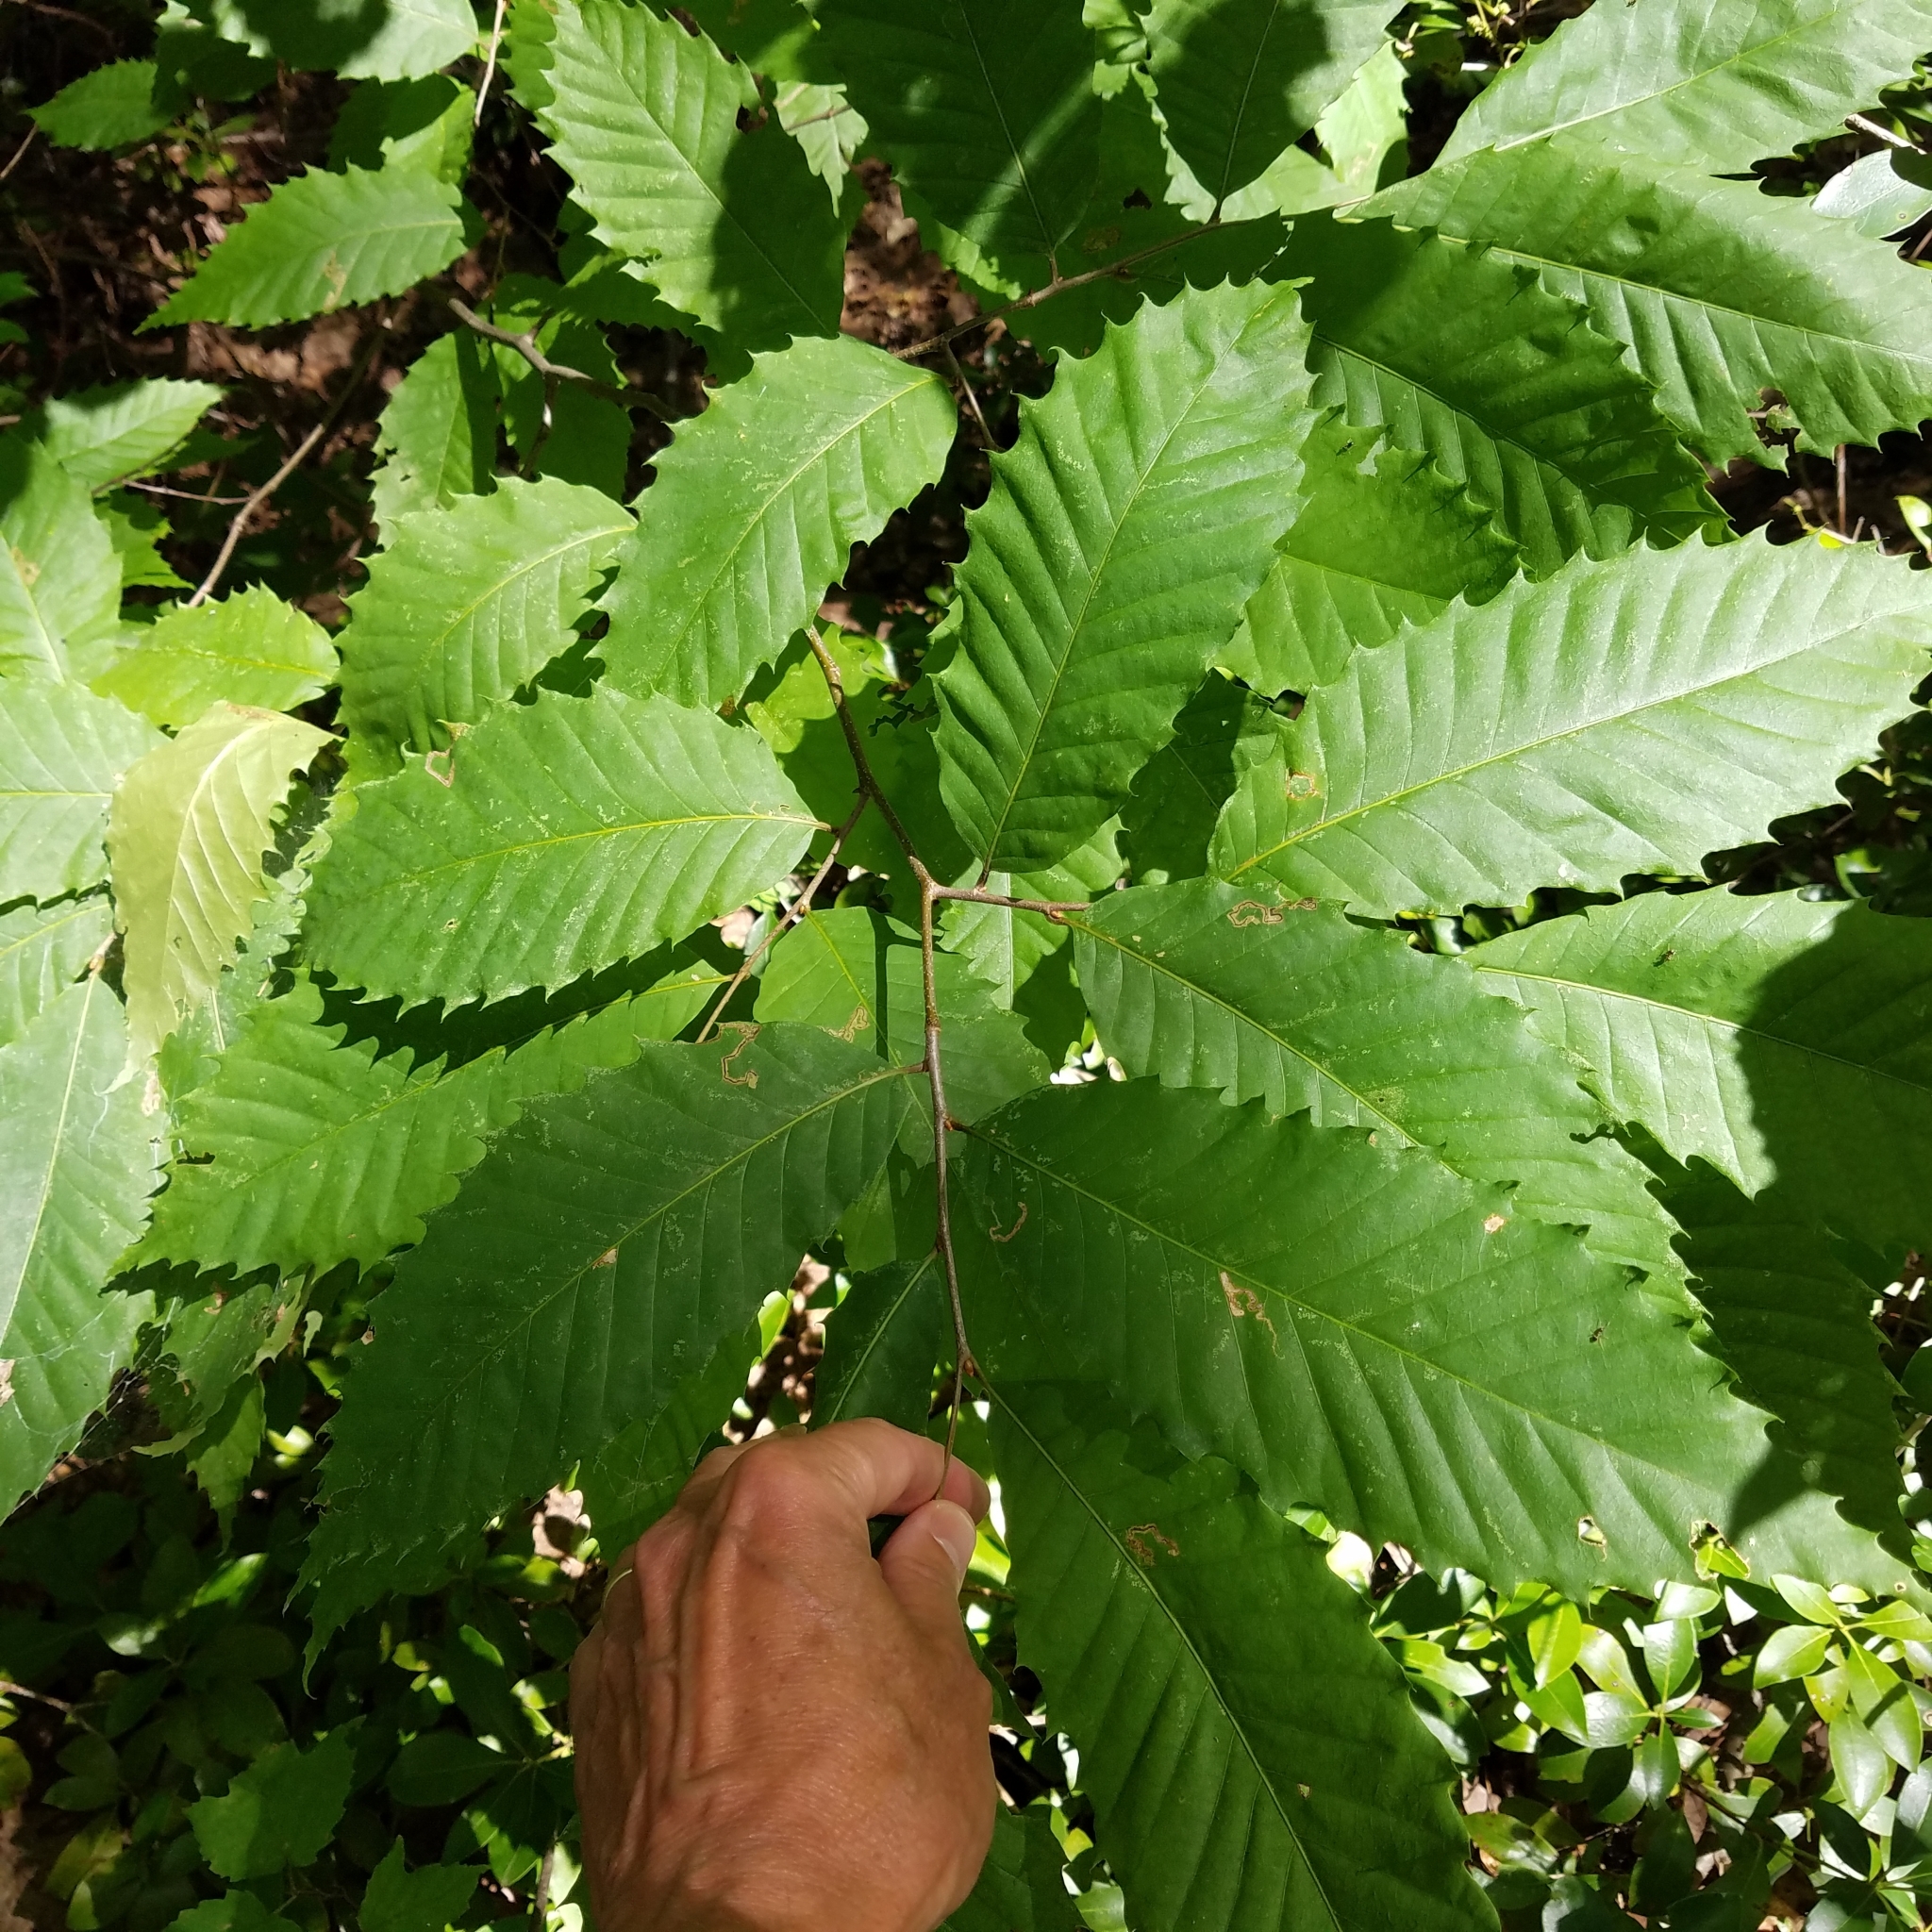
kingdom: Plantae
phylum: Tracheophyta
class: Magnoliopsida
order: Fagales
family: Fagaceae
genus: Castanea
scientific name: Castanea dentata
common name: American chestnut
